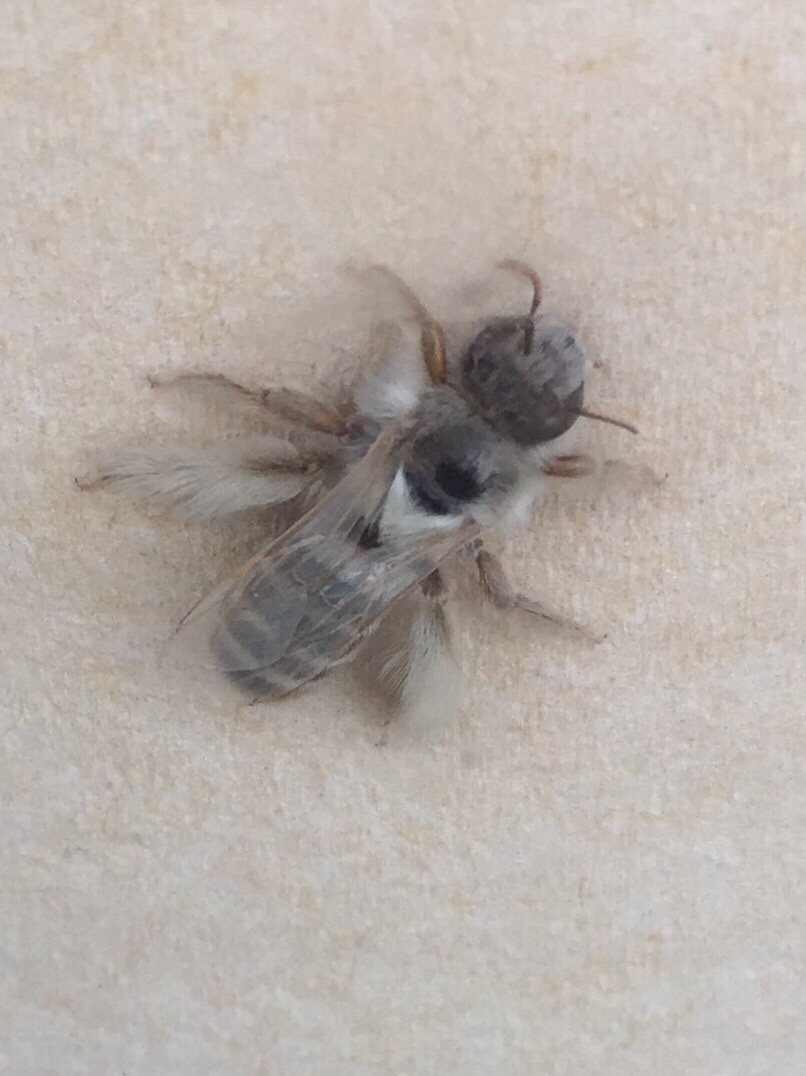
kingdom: Animalia
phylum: Arthropoda
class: Insecta
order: Hymenoptera
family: Melittidae
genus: Dasypoda
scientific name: Dasypoda hirtipes
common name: Pantaloon bee
